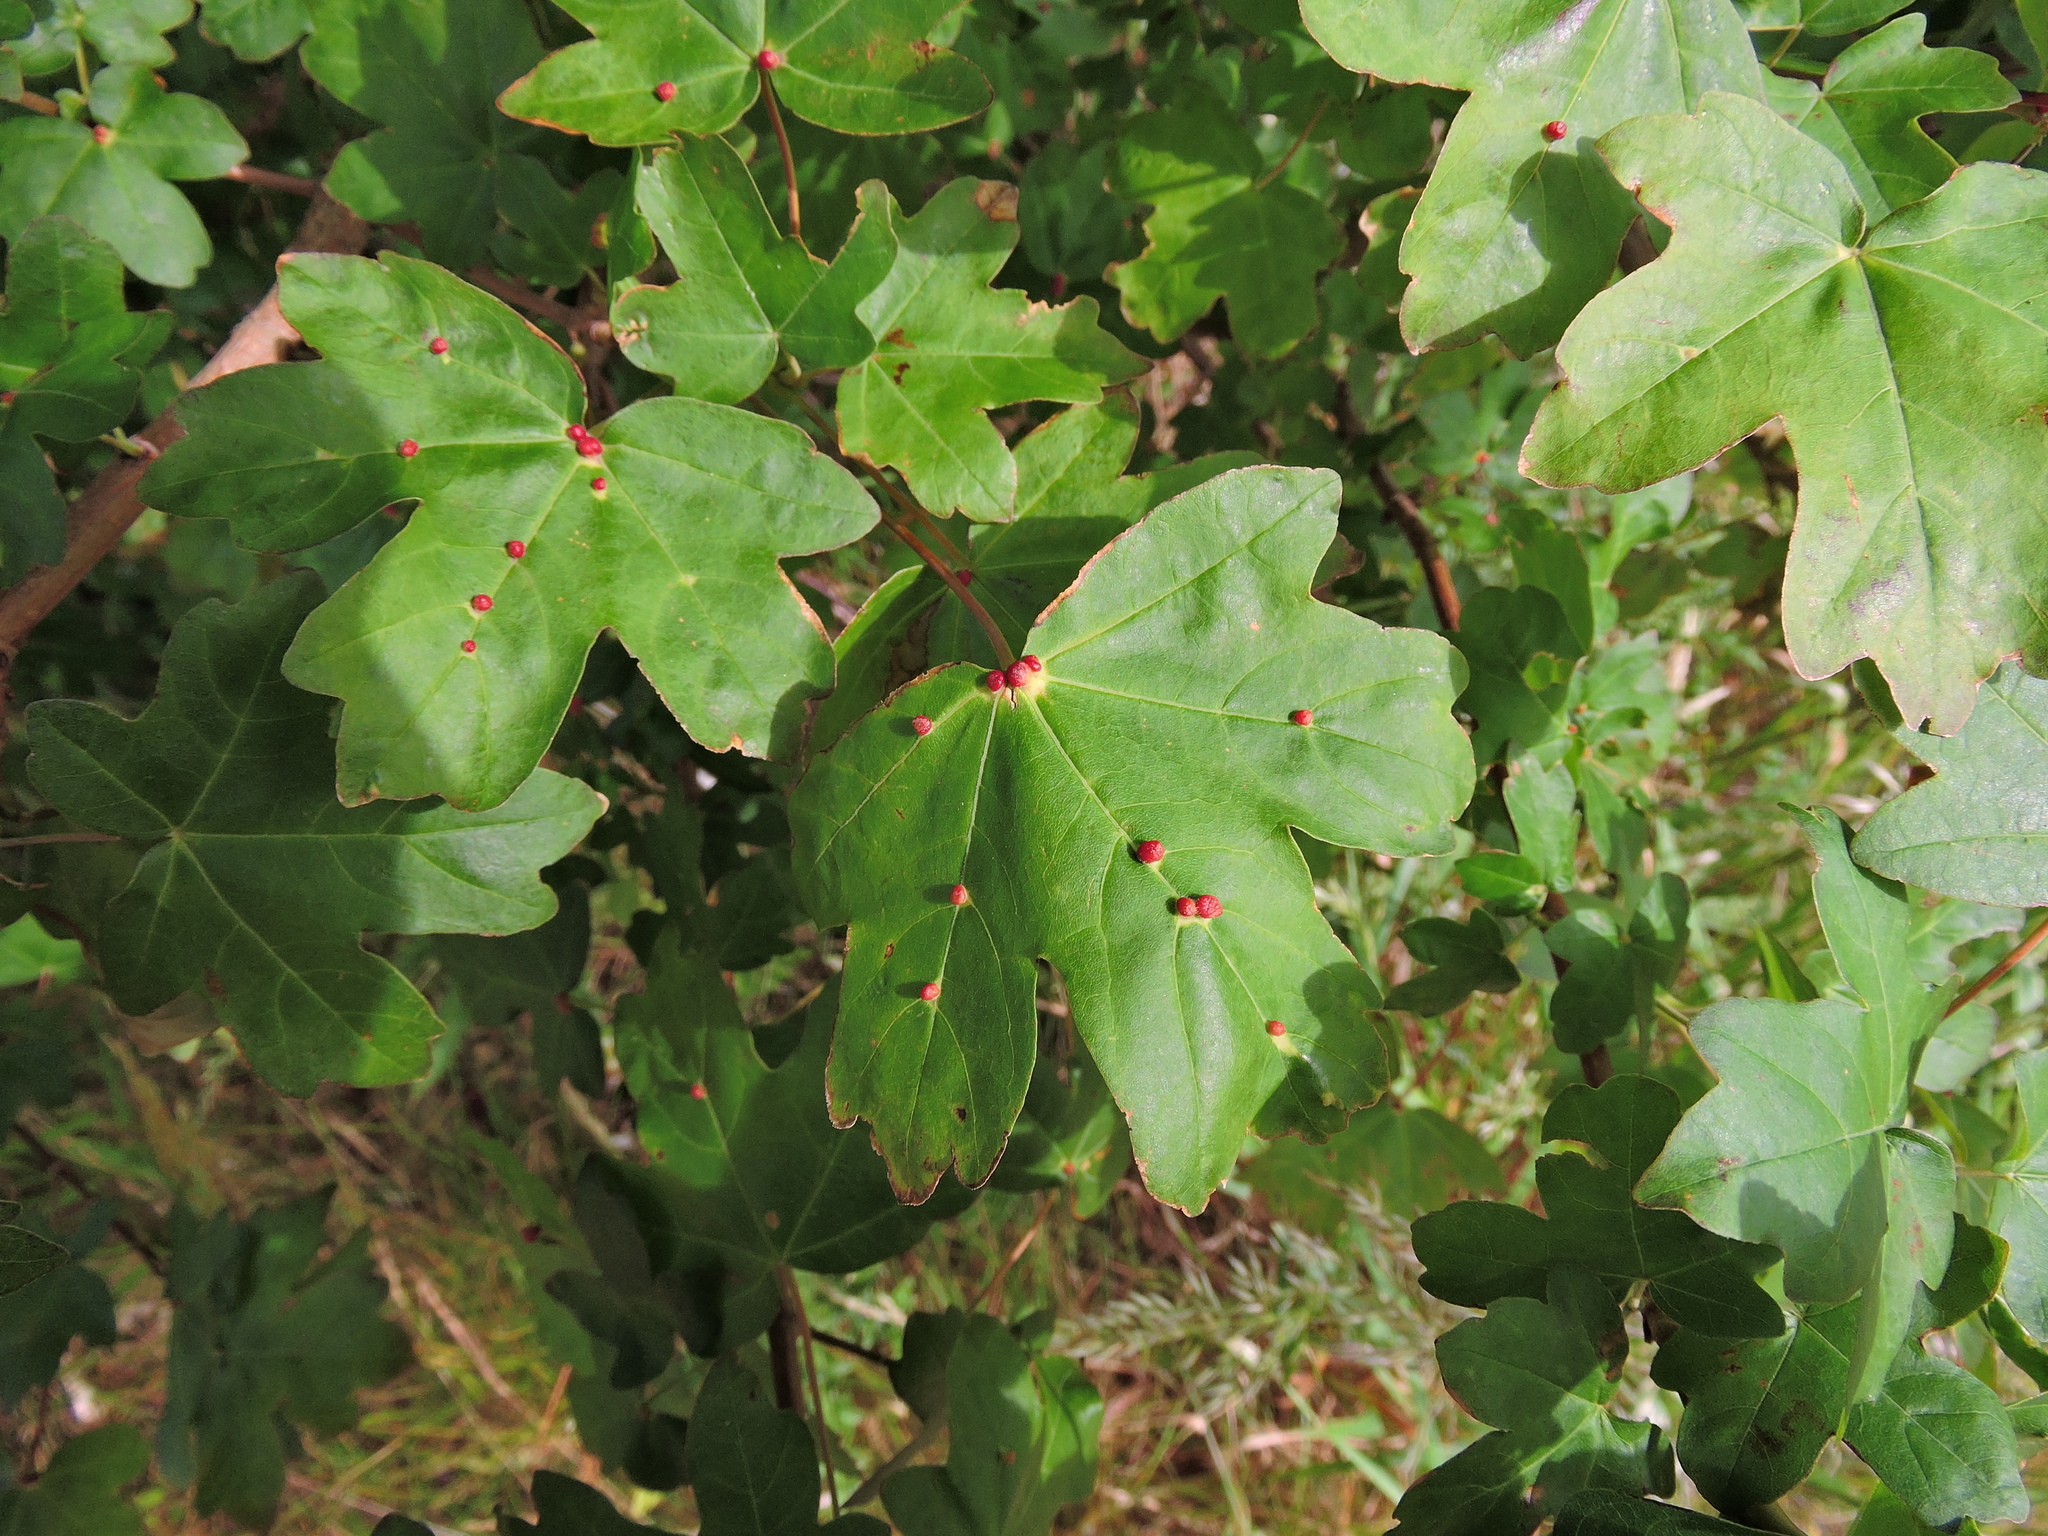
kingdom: Animalia
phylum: Arthropoda
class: Arachnida
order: Trombidiformes
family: Eriophyidae
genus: Aceria
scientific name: Aceria macrochelus
